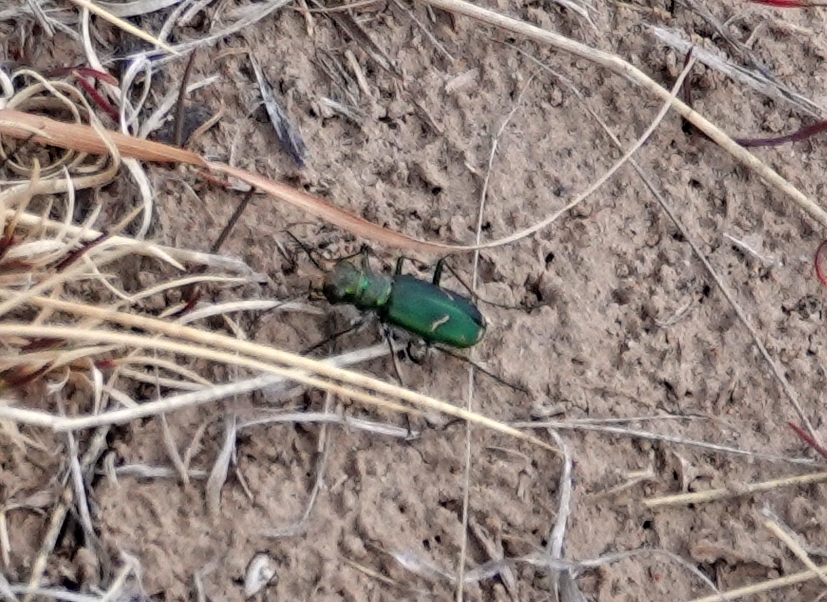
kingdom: Animalia
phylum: Arthropoda
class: Insecta
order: Coleoptera
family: Carabidae
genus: Cicindela
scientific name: Cicindela purpurea
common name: Cow path tiger beetle
